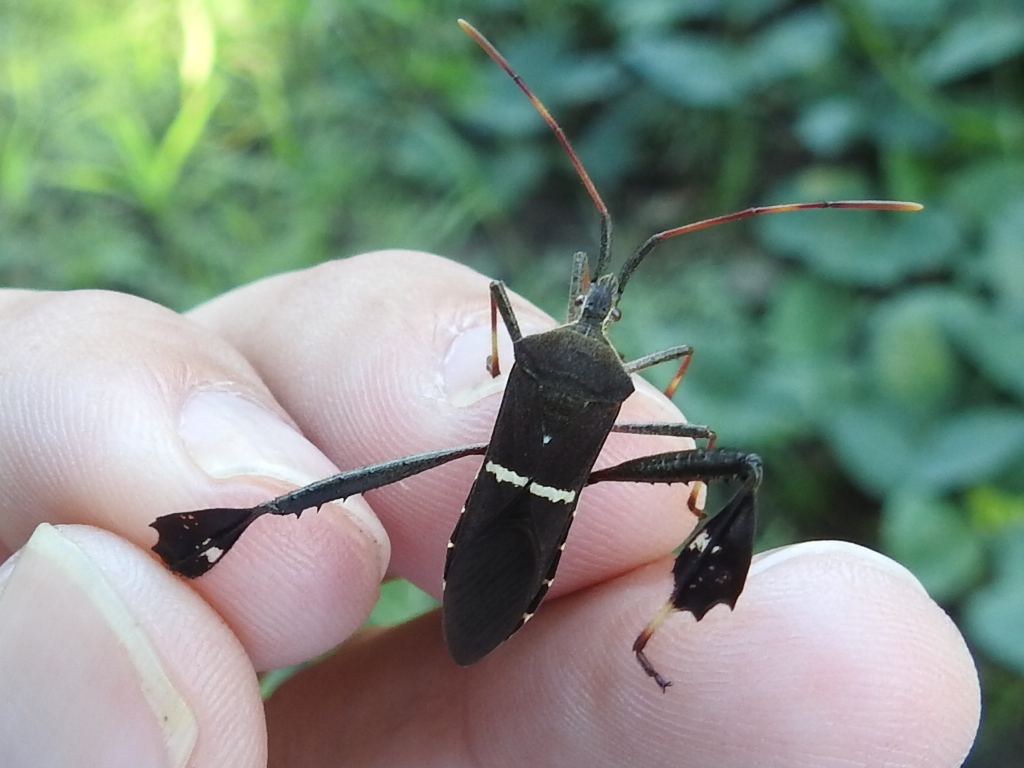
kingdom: Animalia
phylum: Arthropoda
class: Insecta
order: Hemiptera
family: Coreidae
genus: Leptoglossus
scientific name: Leptoglossus phyllopus
